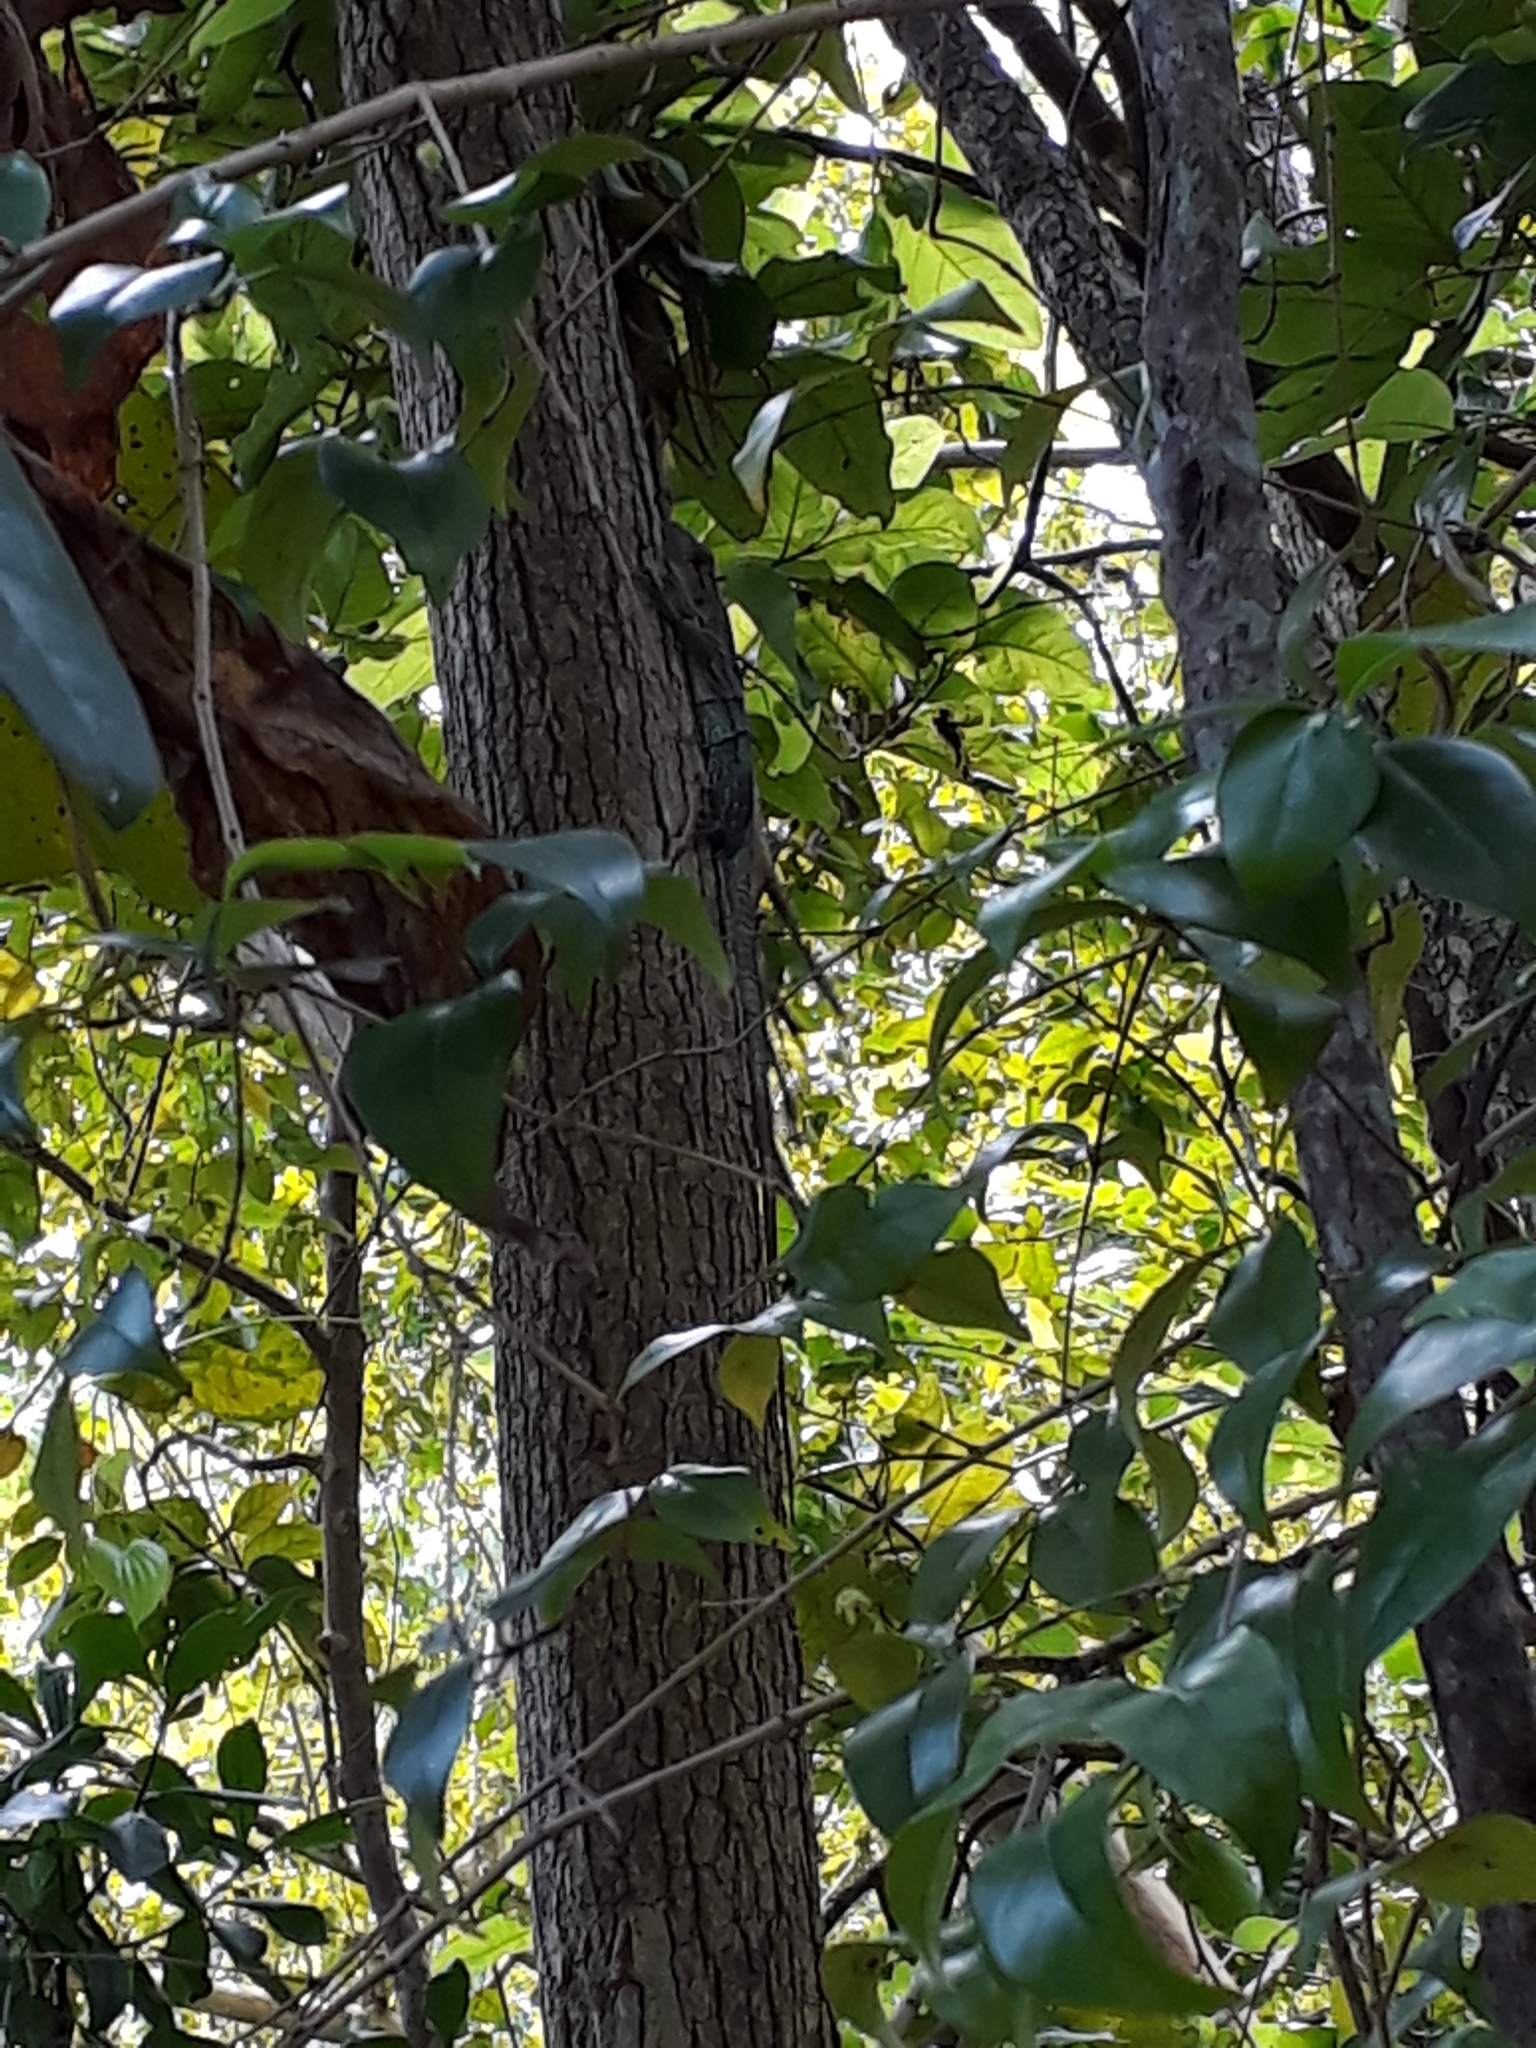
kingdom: Animalia
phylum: Chordata
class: Squamata
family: Iguanidae
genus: Ctenosaura
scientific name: Ctenosaura similis
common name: Black spiny-tailed iguana
